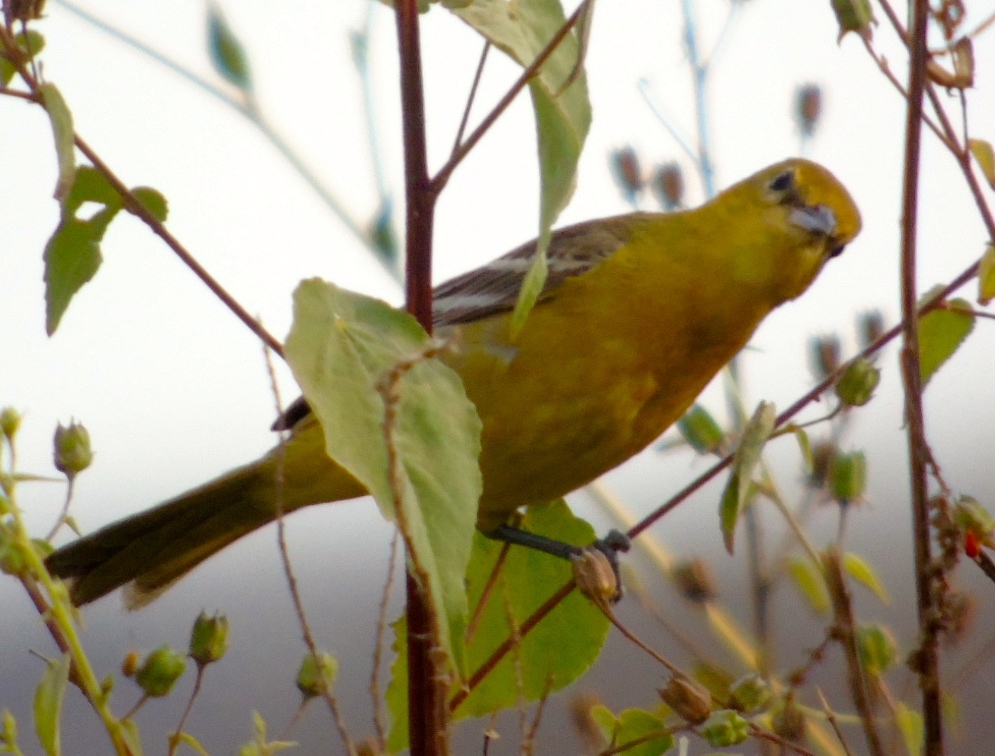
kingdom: Animalia
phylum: Chordata
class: Aves
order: Passeriformes
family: Icteridae
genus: Icterus
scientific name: Icterus
